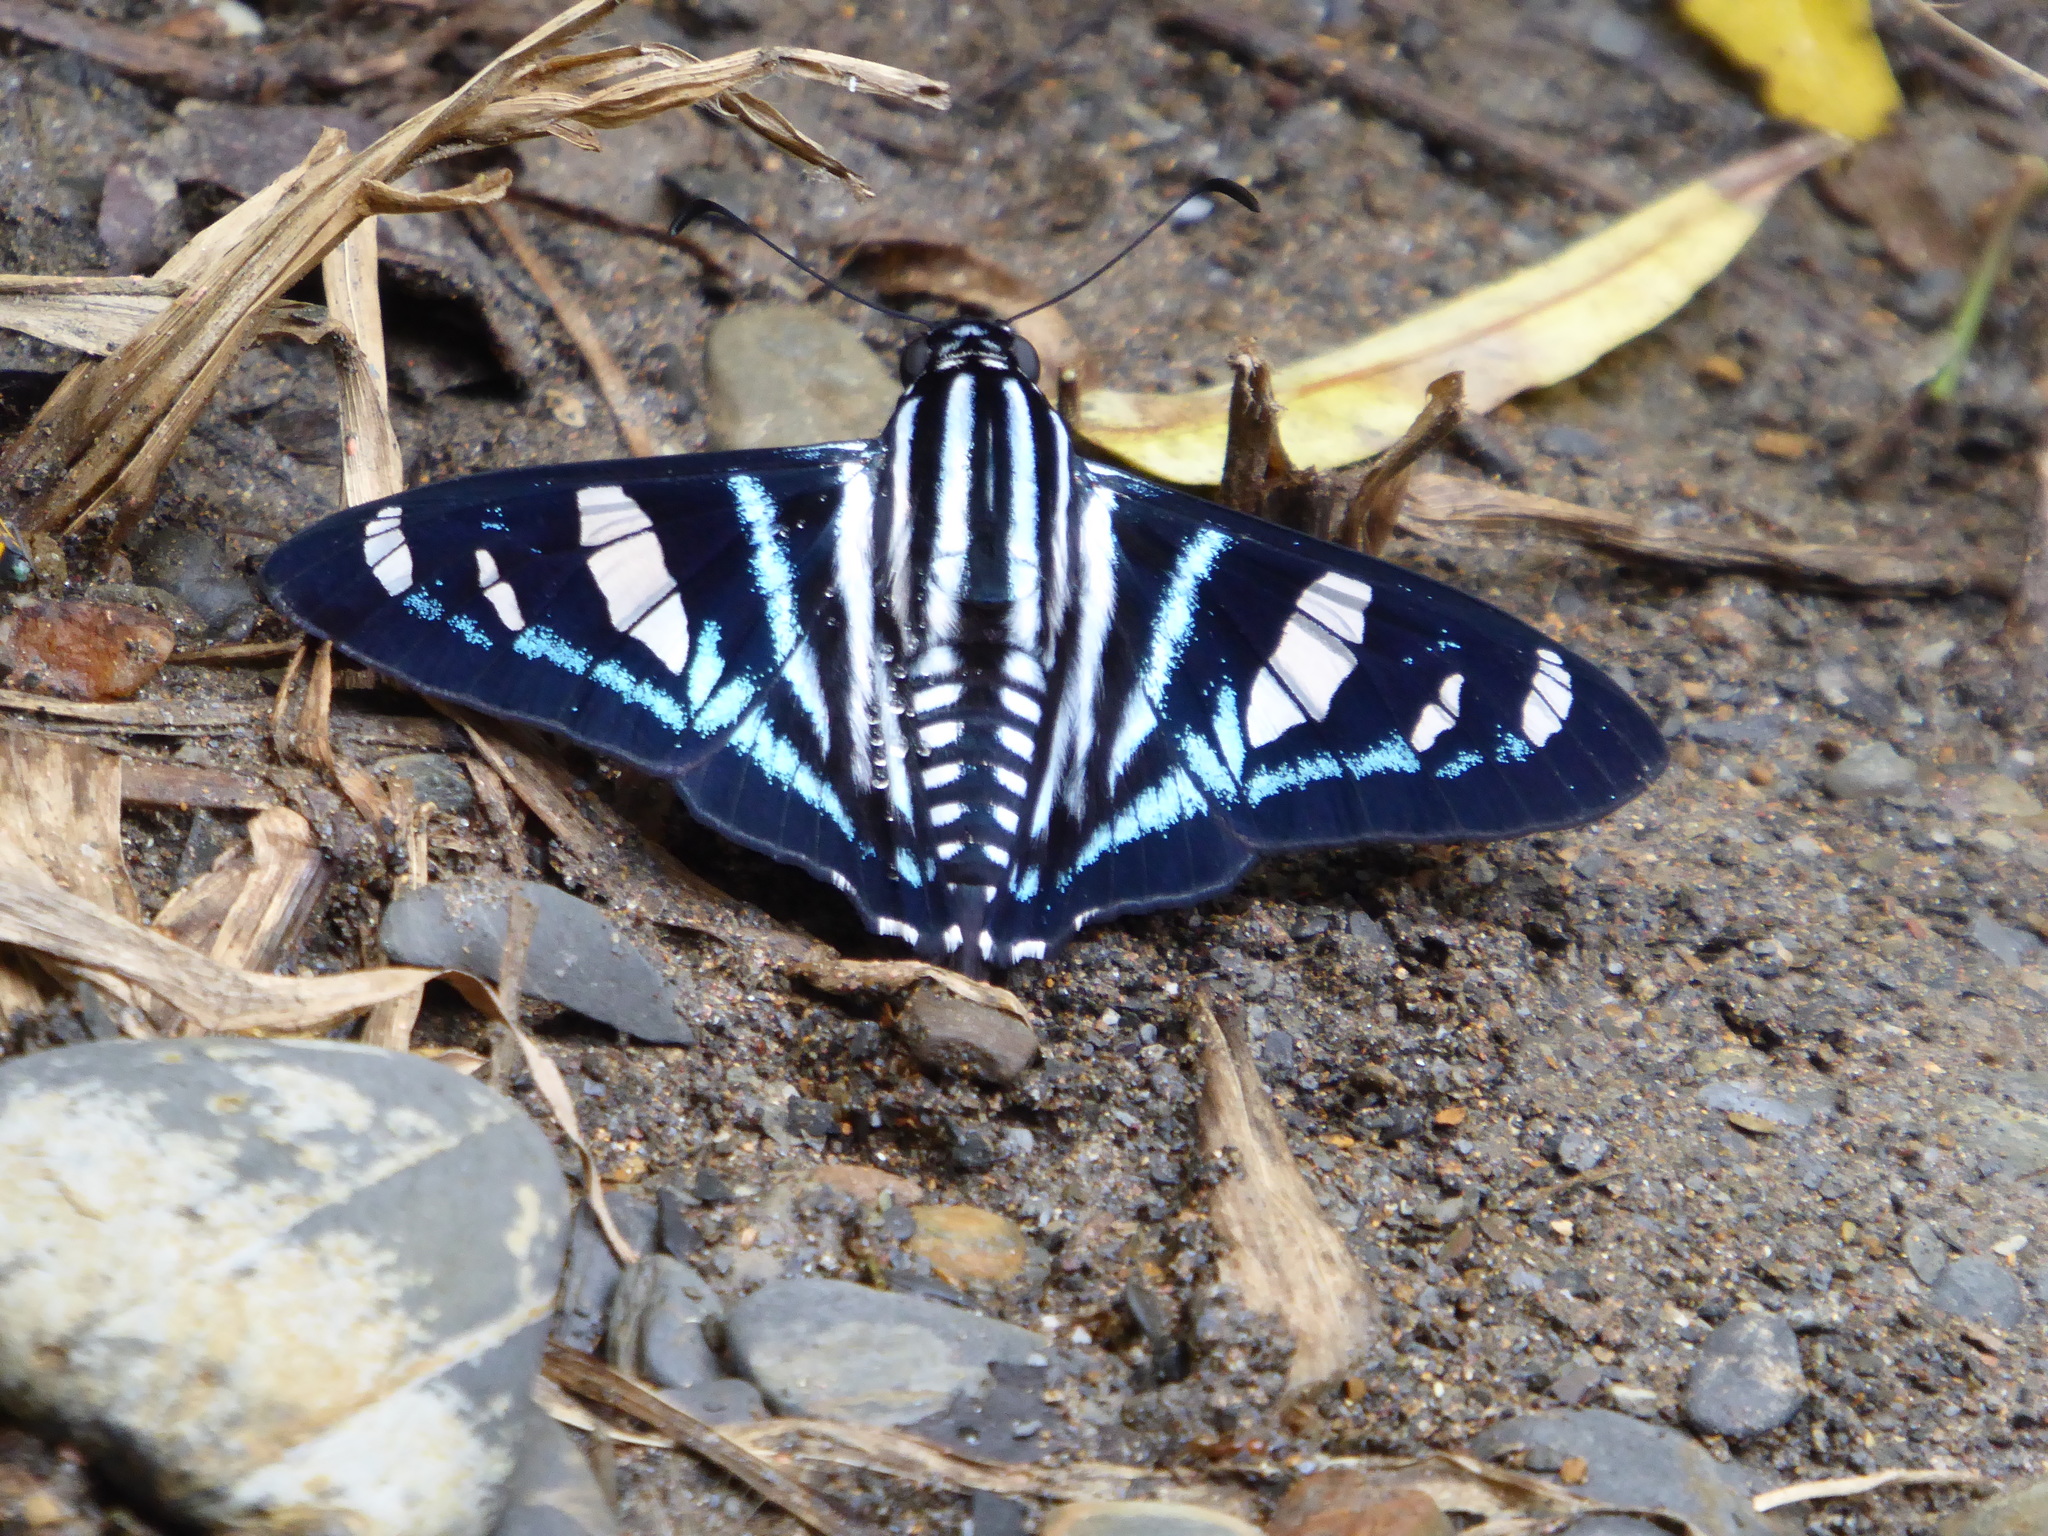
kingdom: Animalia
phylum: Arthropoda
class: Insecta
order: Lepidoptera
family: Hesperiidae
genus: Jemadia
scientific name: Jemadia sosia
